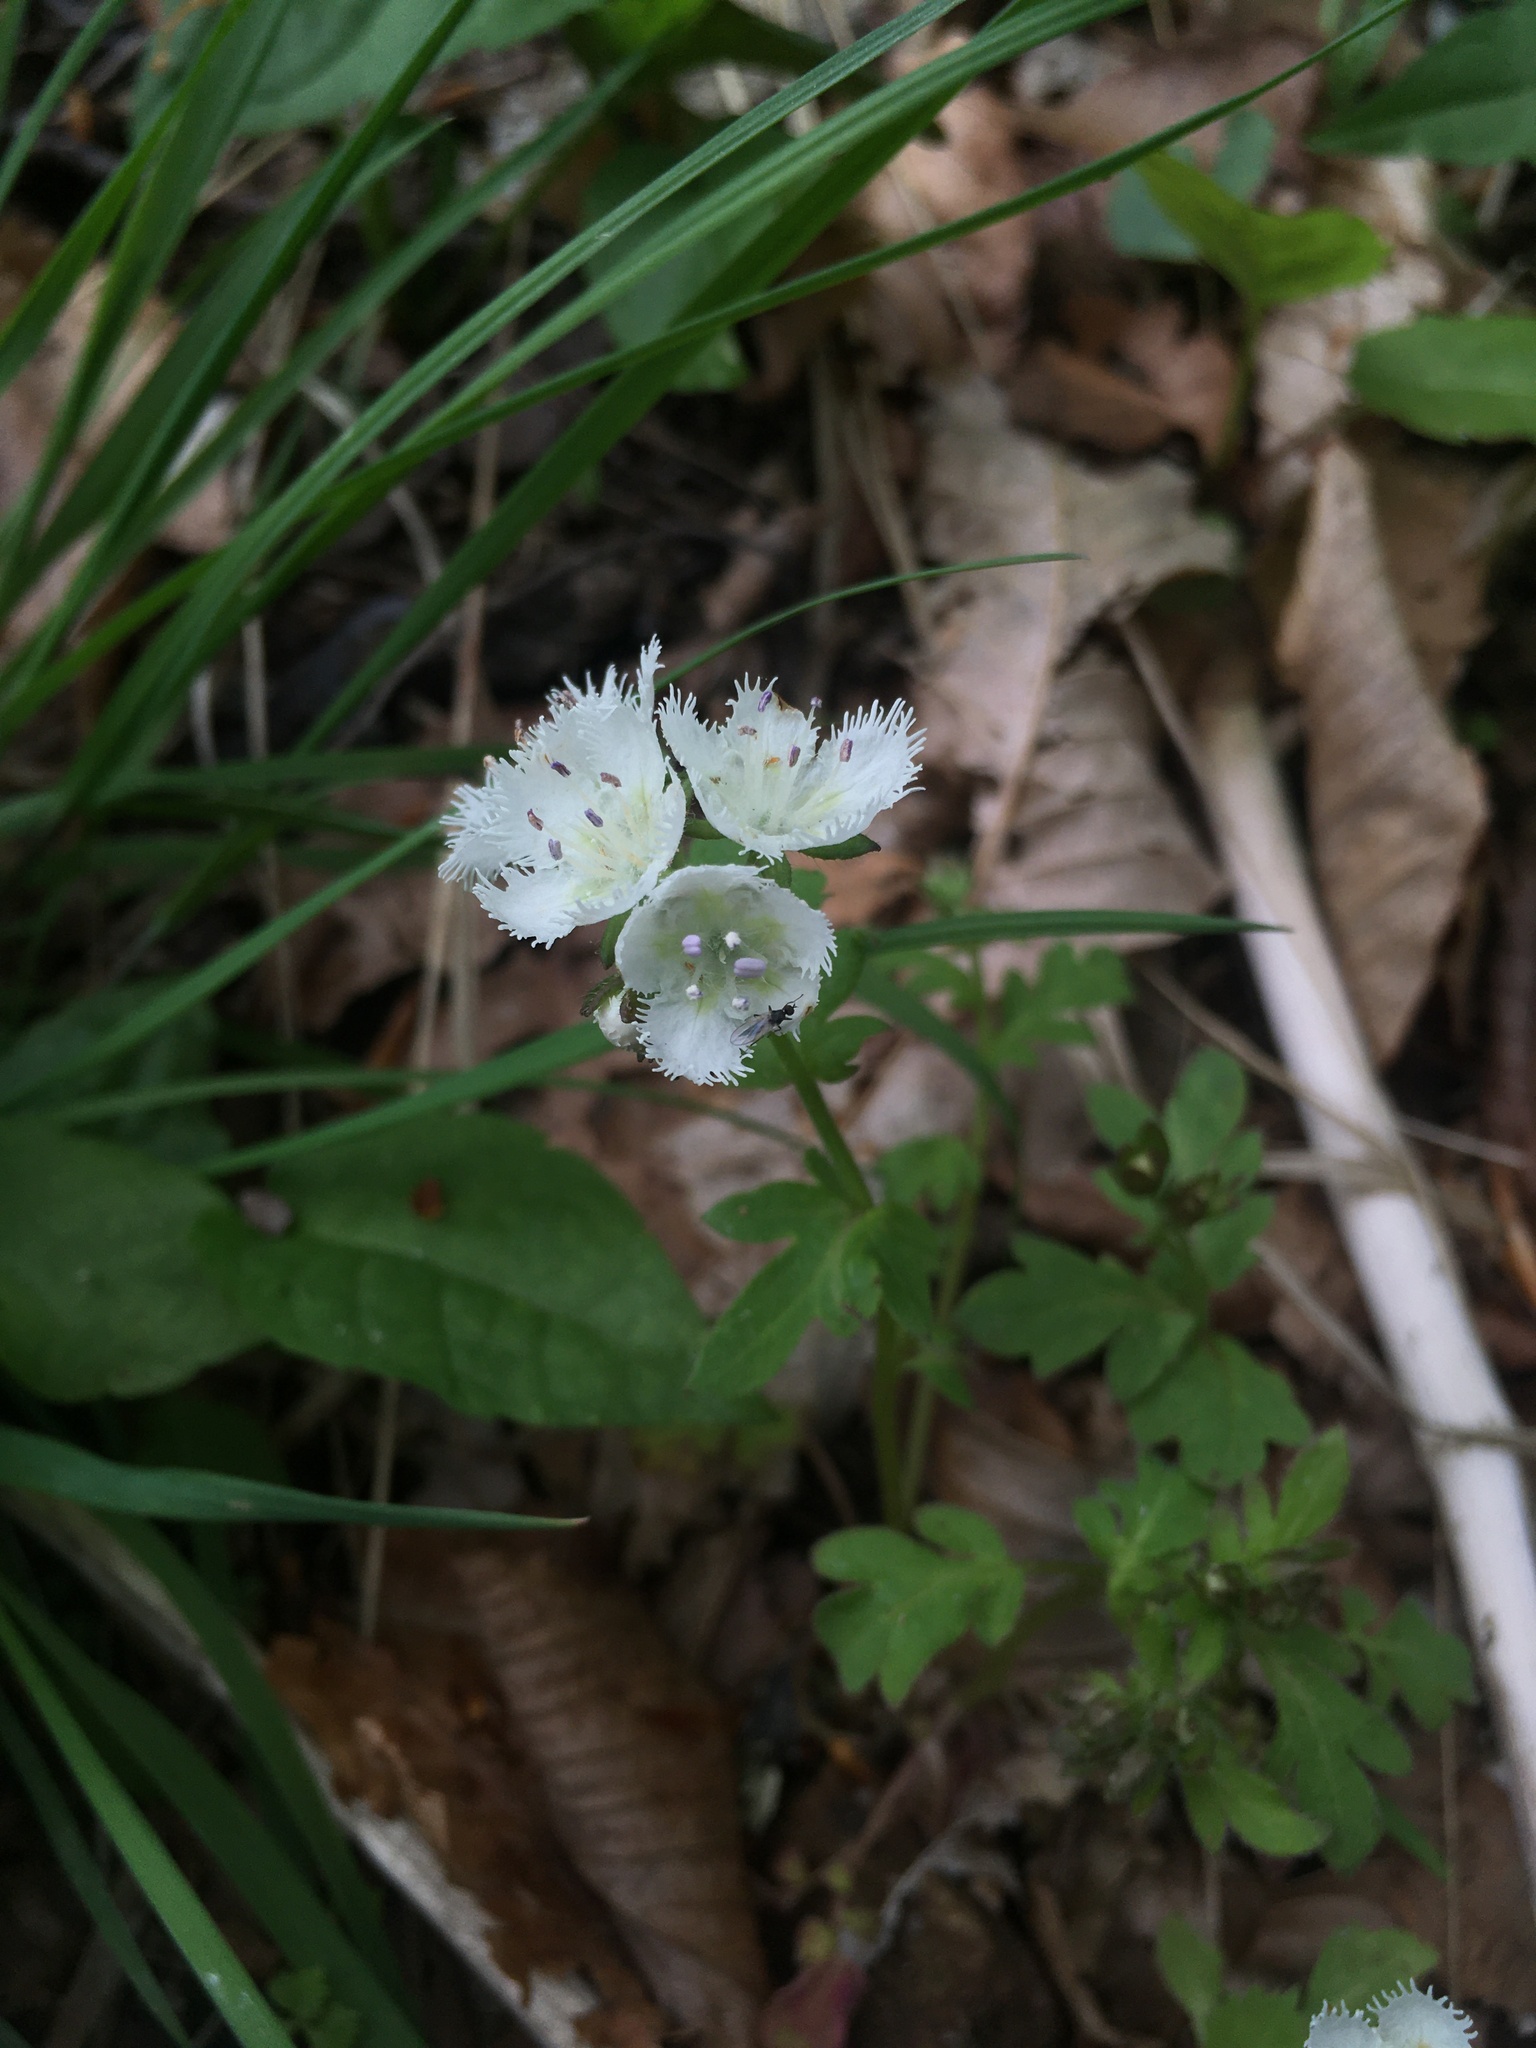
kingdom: Plantae
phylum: Tracheophyta
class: Magnoliopsida
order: Boraginales
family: Hydrophyllaceae
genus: Phacelia
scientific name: Phacelia fimbriata
